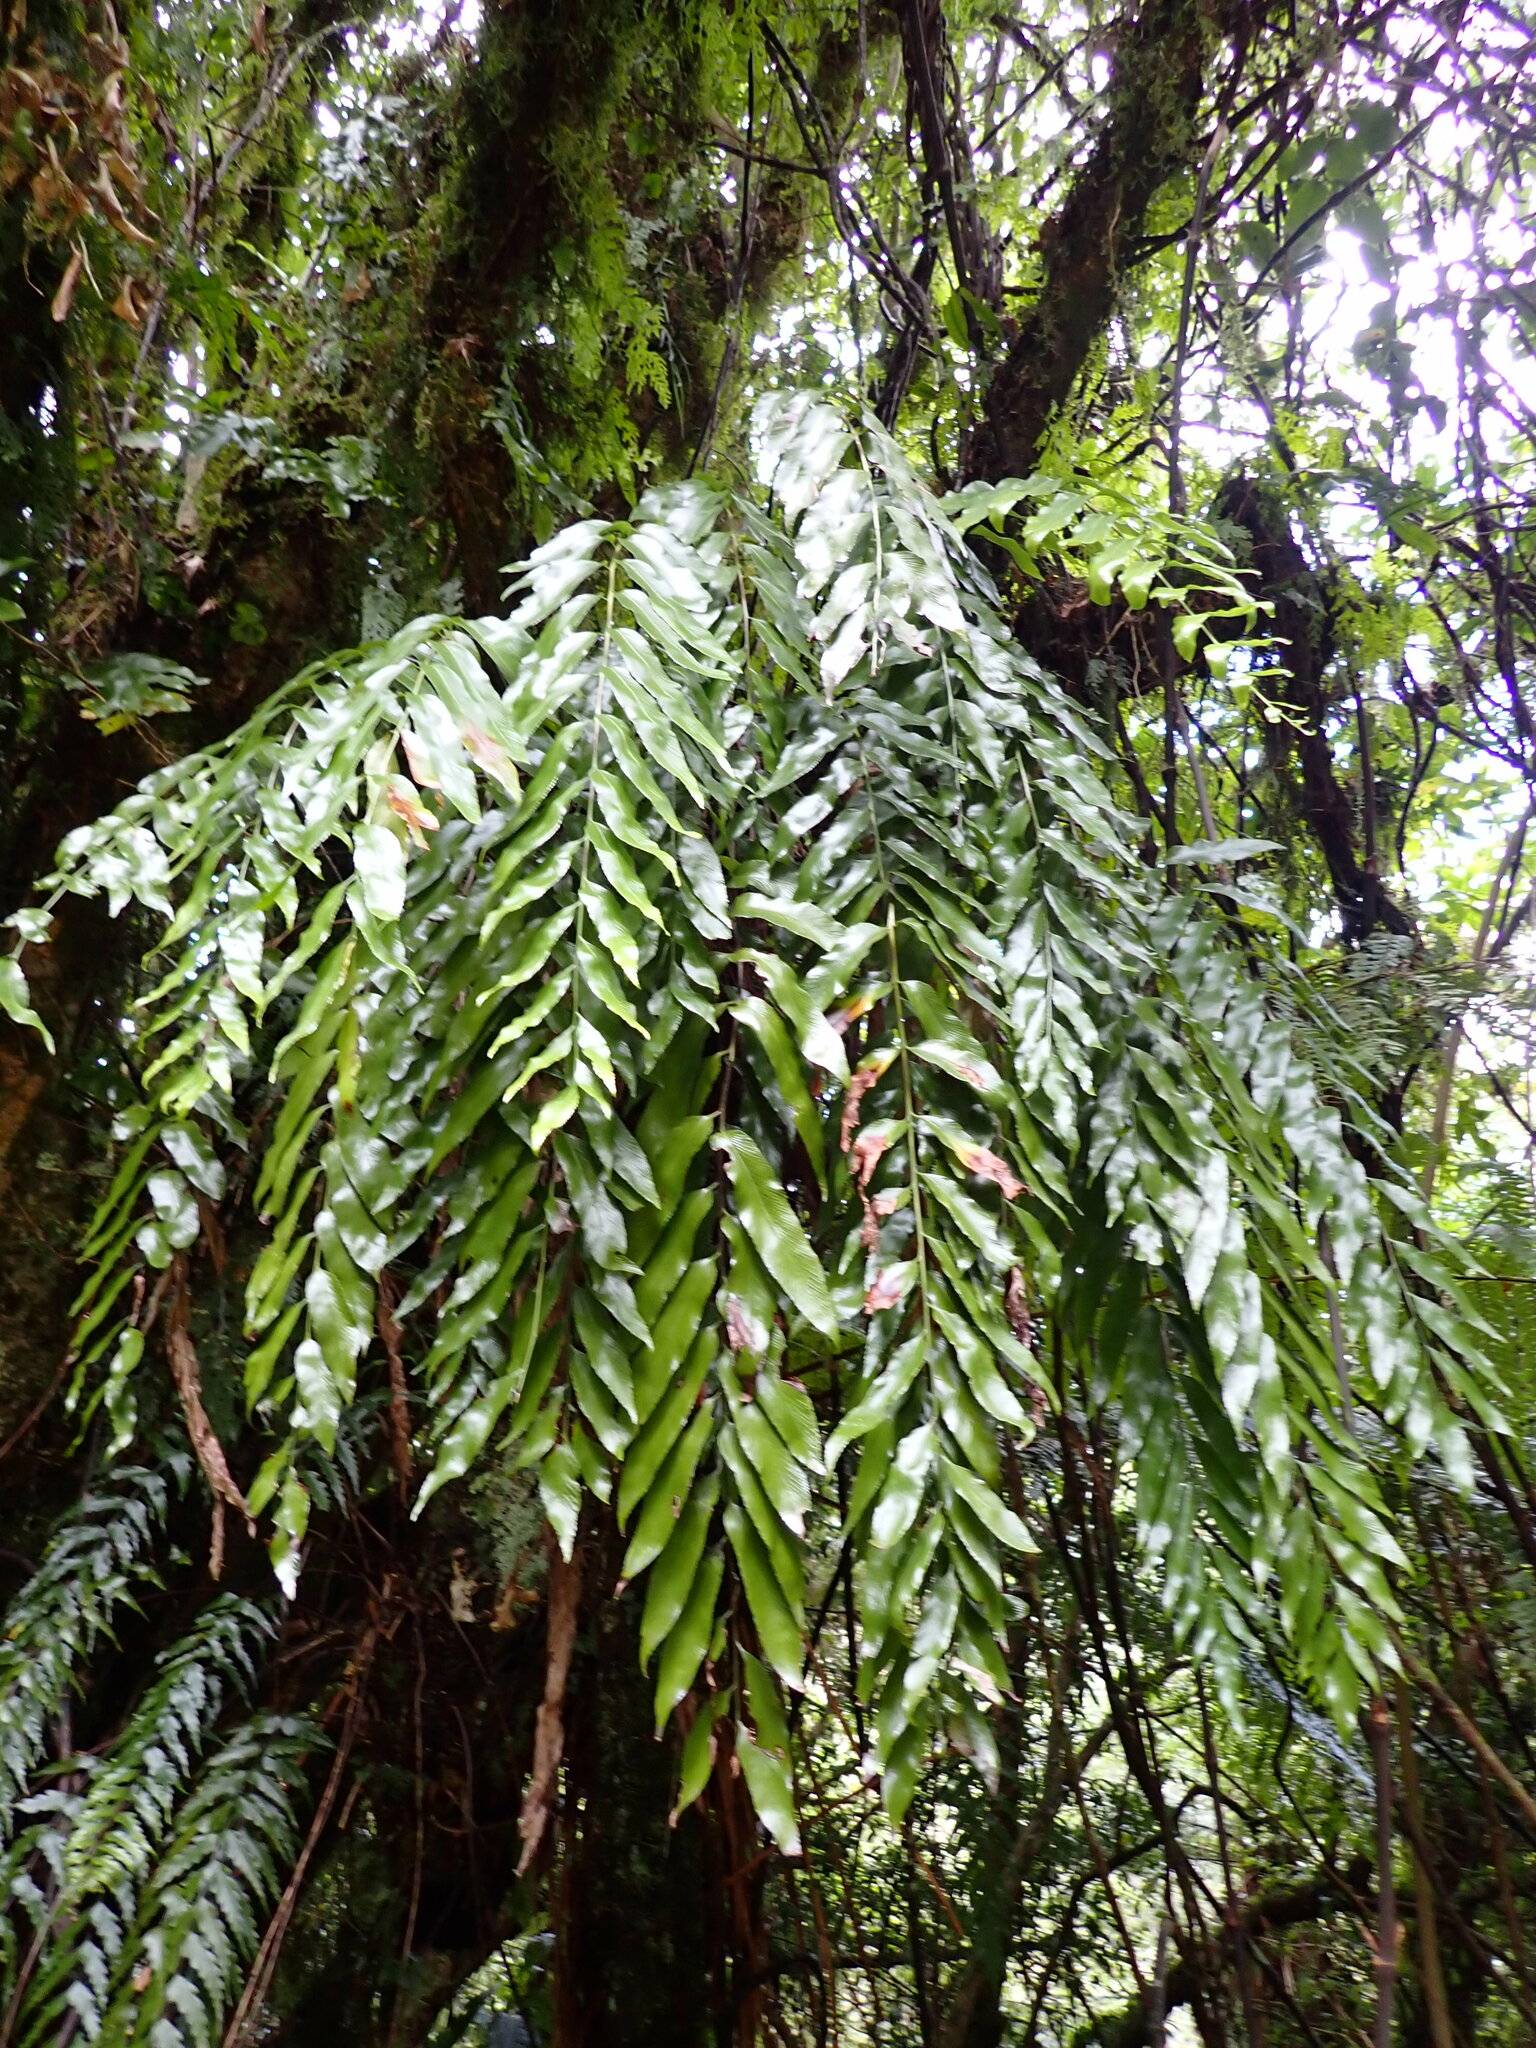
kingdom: Plantae
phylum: Tracheophyta
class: Polypodiopsida
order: Polypodiales
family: Aspleniaceae
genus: Asplenium
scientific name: Asplenium oblongifolium
